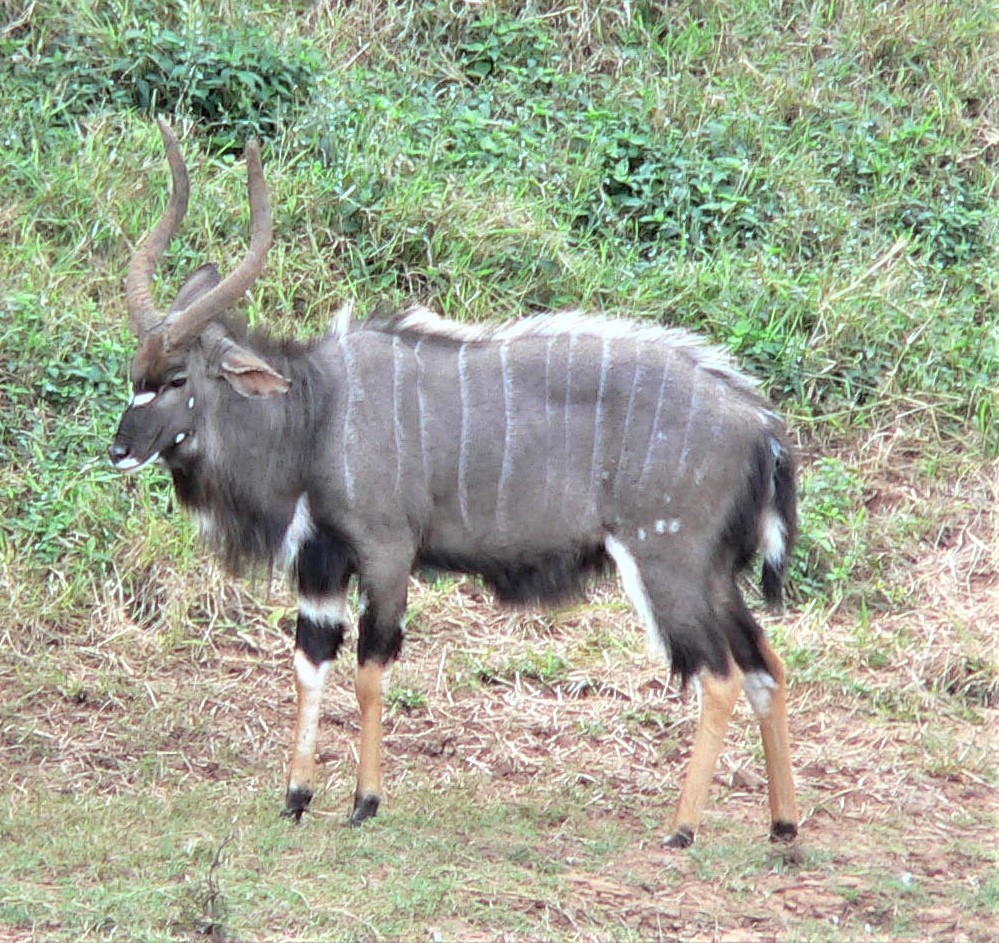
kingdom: Animalia
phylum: Chordata
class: Mammalia
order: Artiodactyla
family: Bovidae
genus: Tragelaphus
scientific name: Tragelaphus angasii
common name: Nyala
